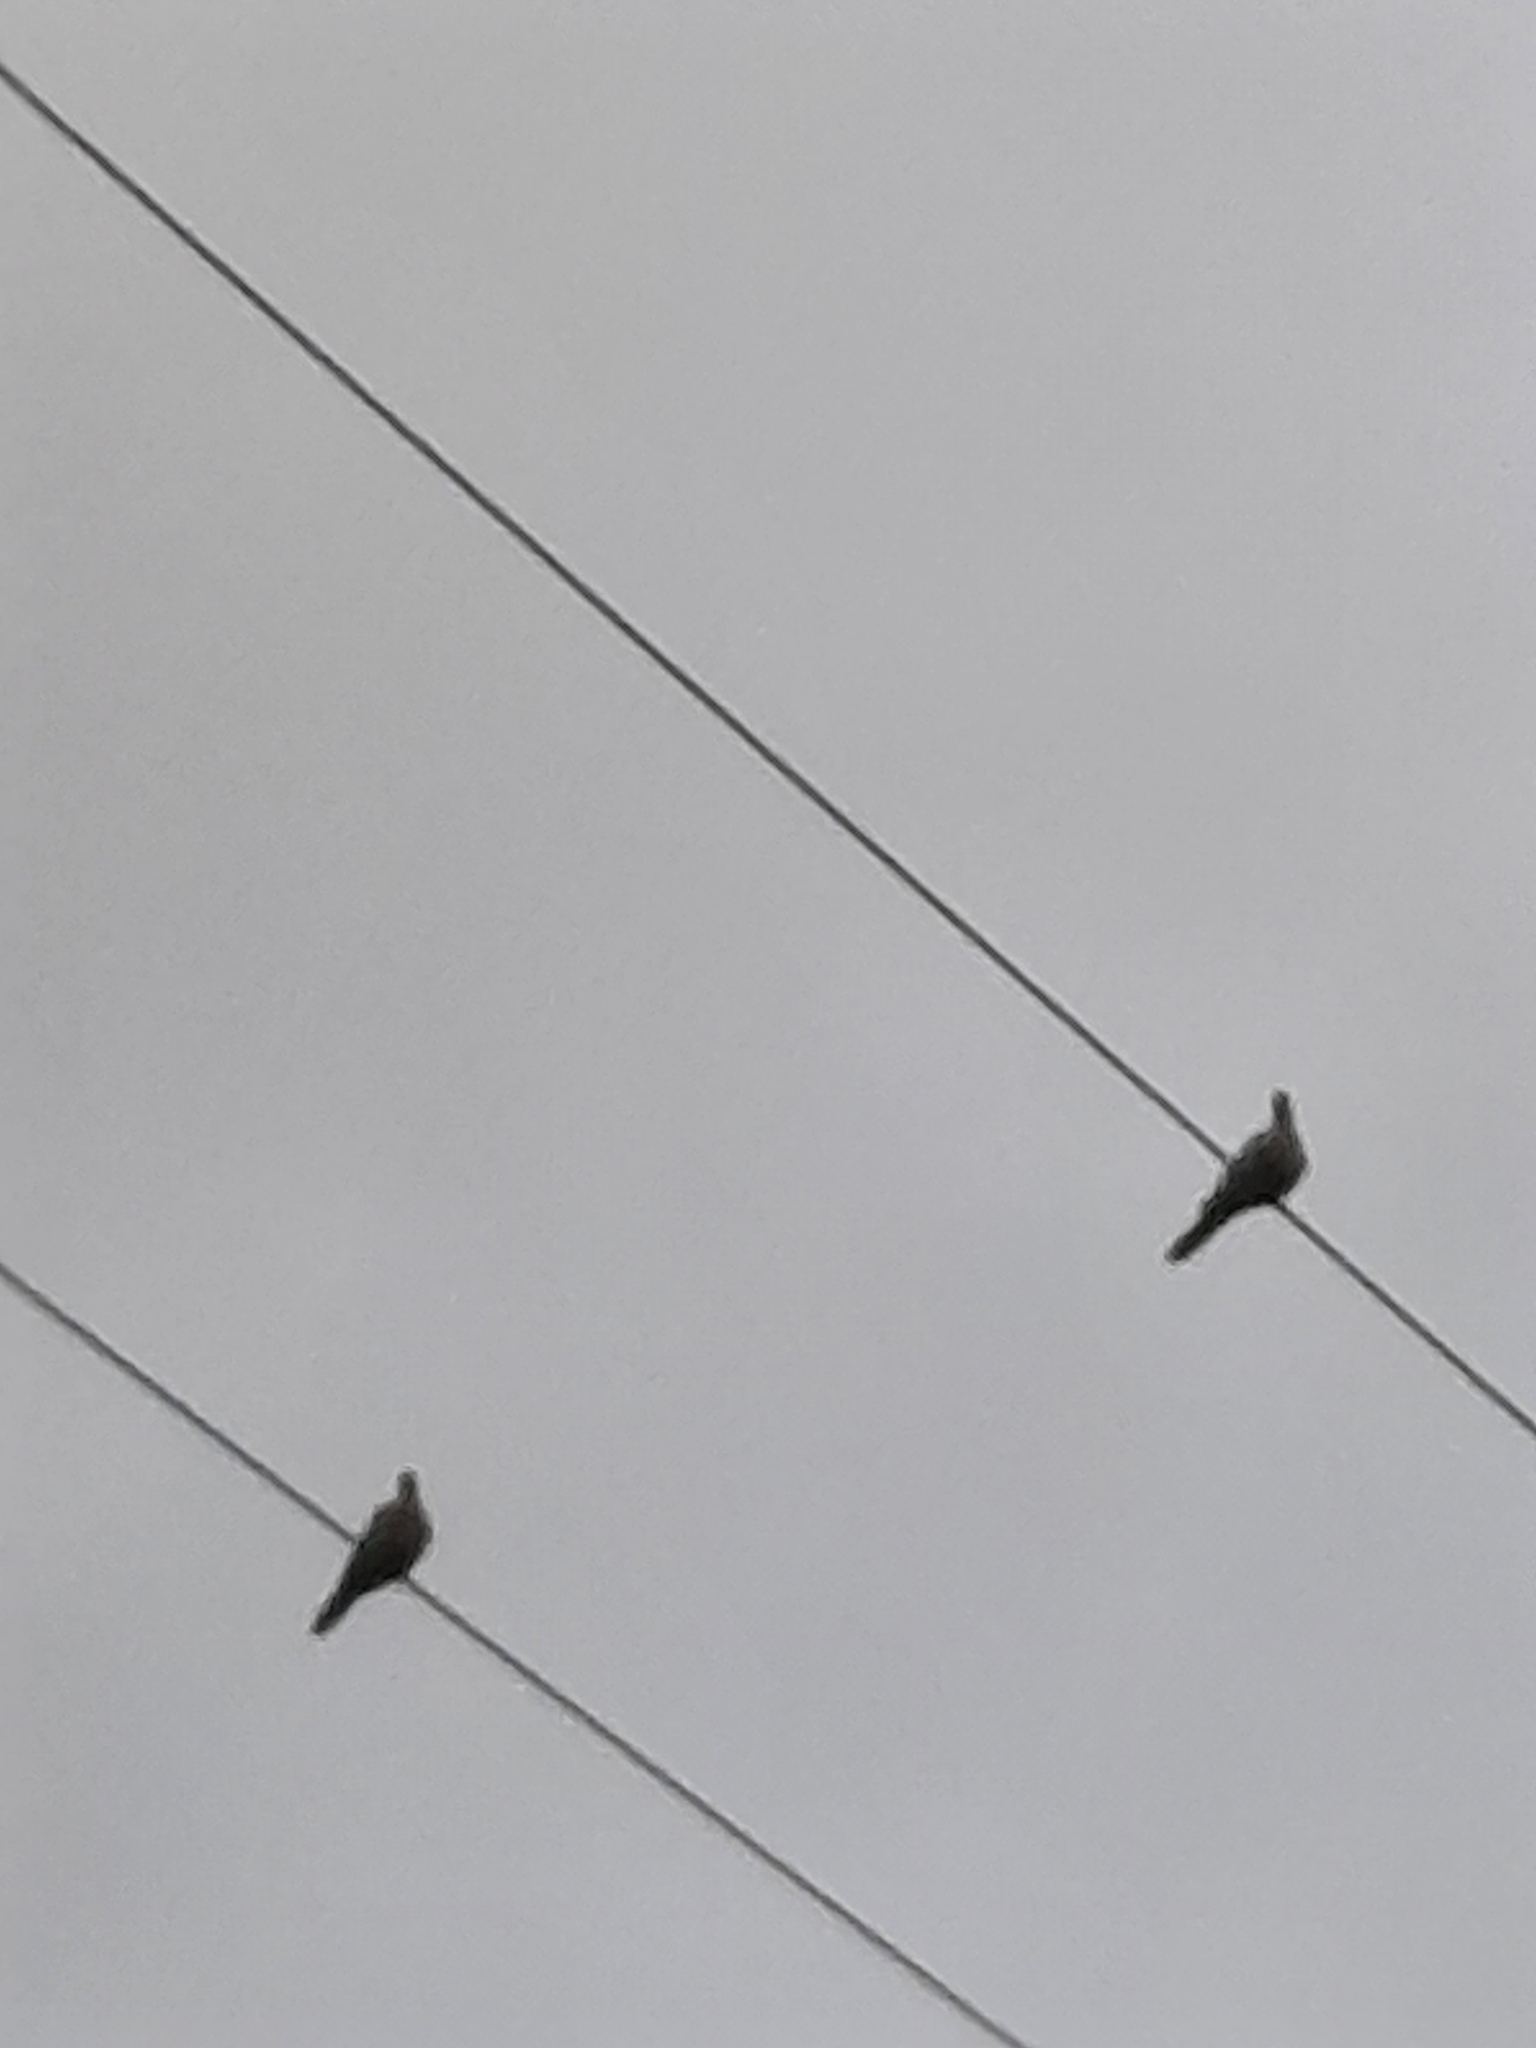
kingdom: Animalia
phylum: Chordata
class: Aves
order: Columbiformes
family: Columbidae
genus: Streptopelia
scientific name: Streptopelia decaocto
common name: Eurasian collared dove
